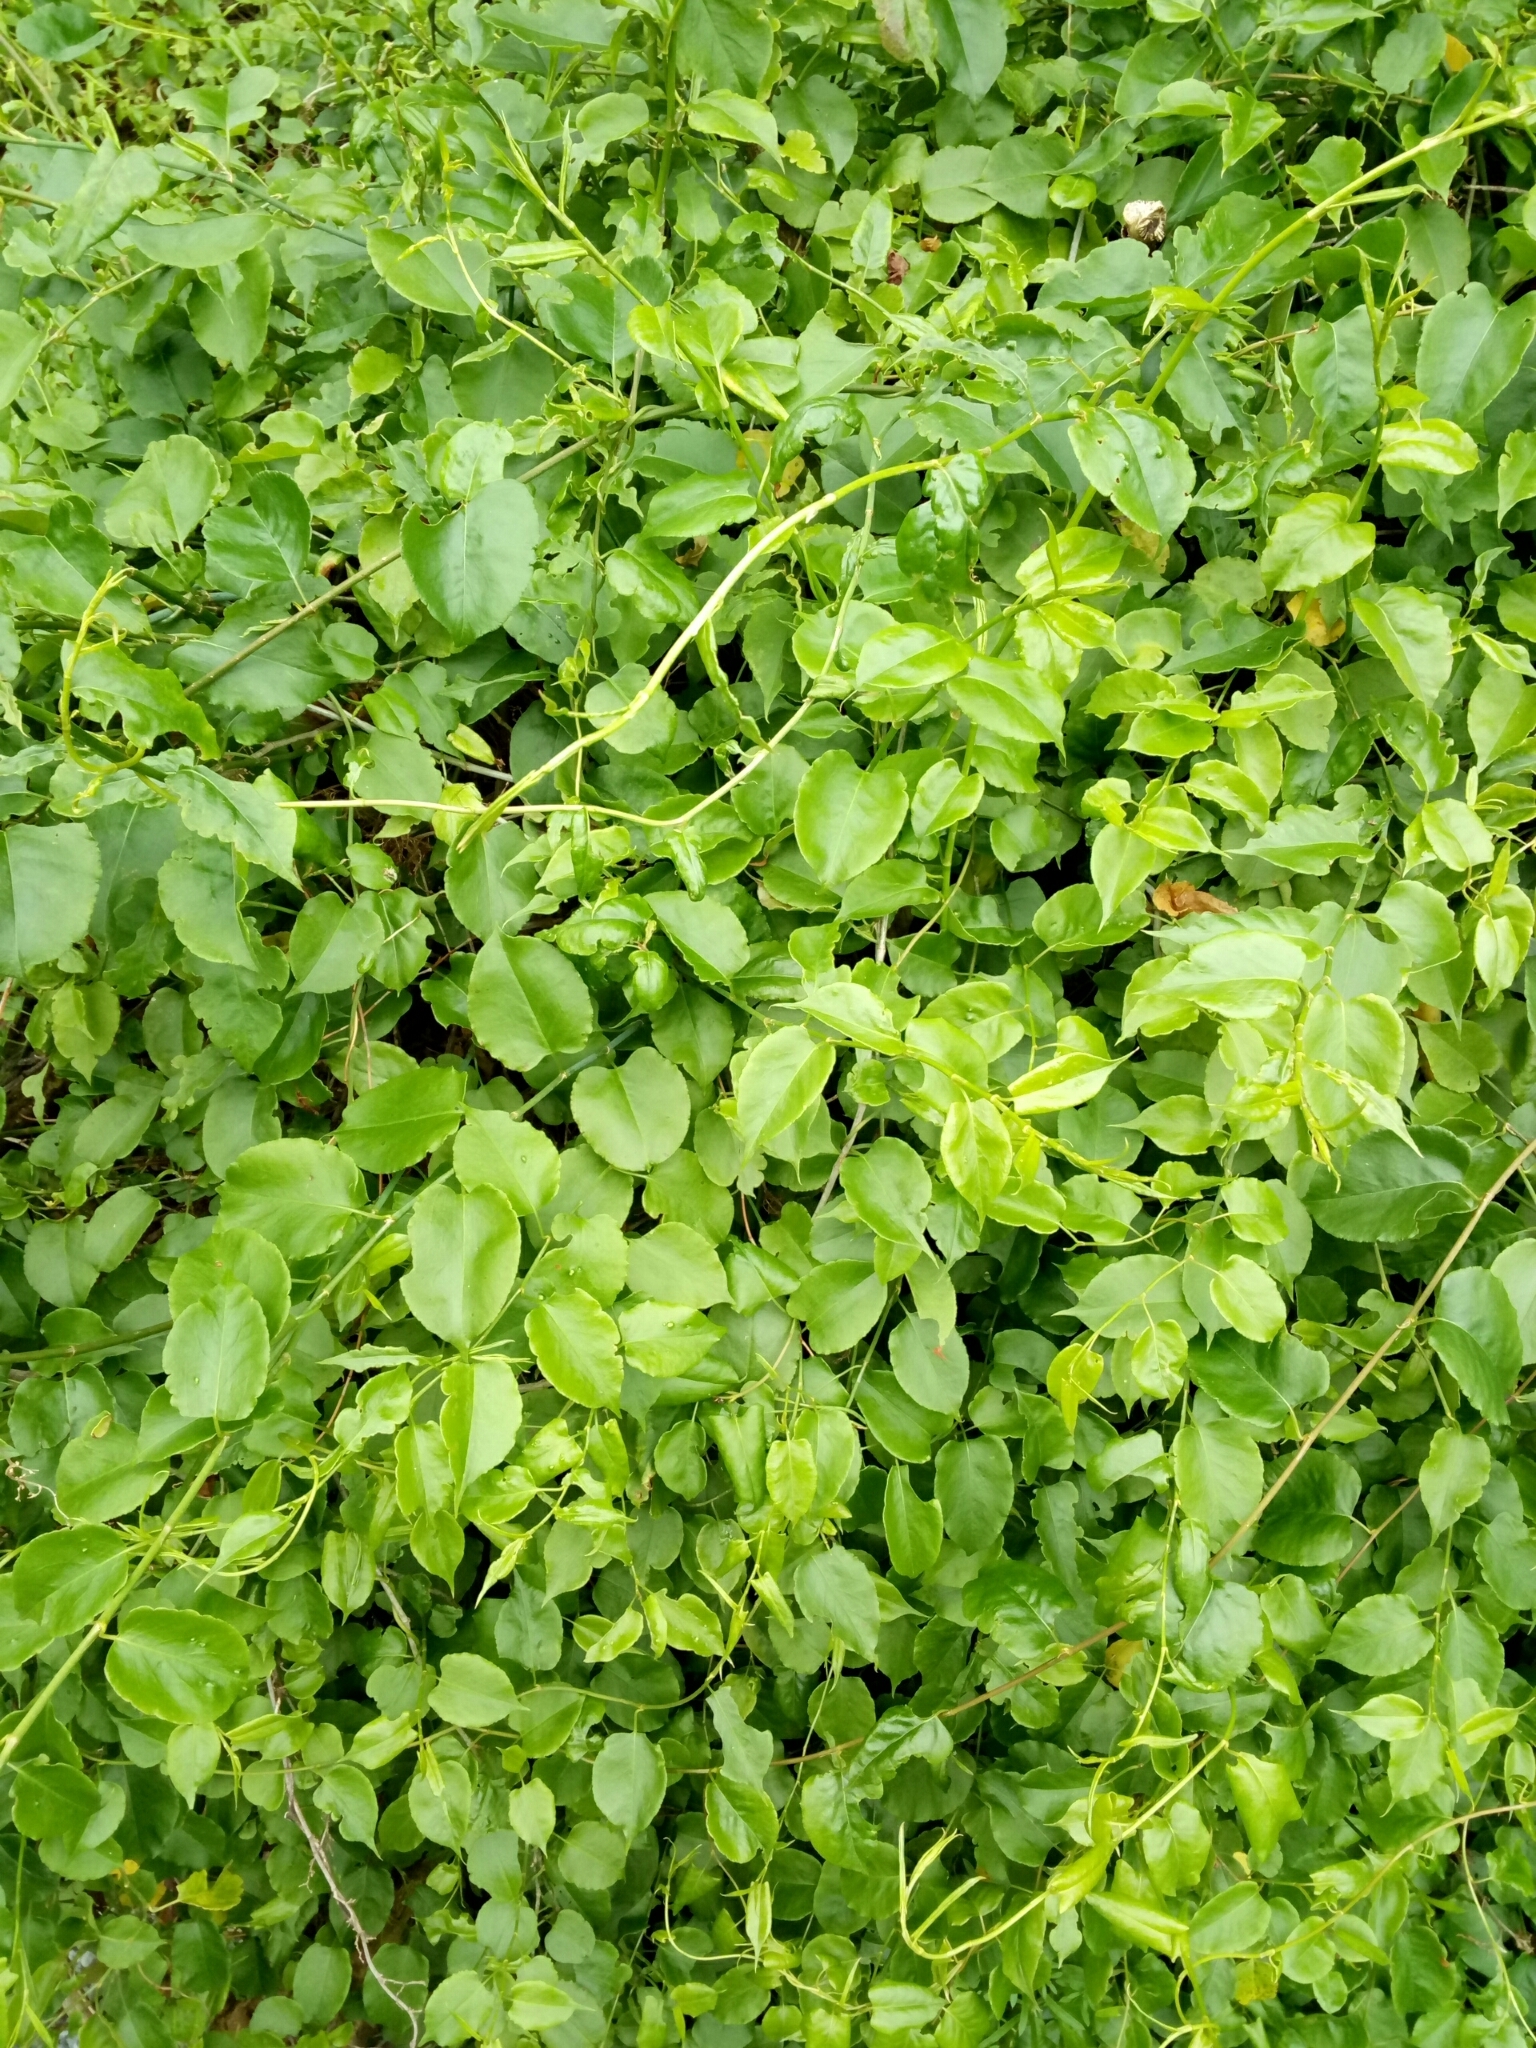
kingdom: Plantae
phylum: Tracheophyta
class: Magnoliopsida
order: Caryophyllales
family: Polygonaceae
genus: Muehlenbeckia
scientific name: Muehlenbeckia australis
